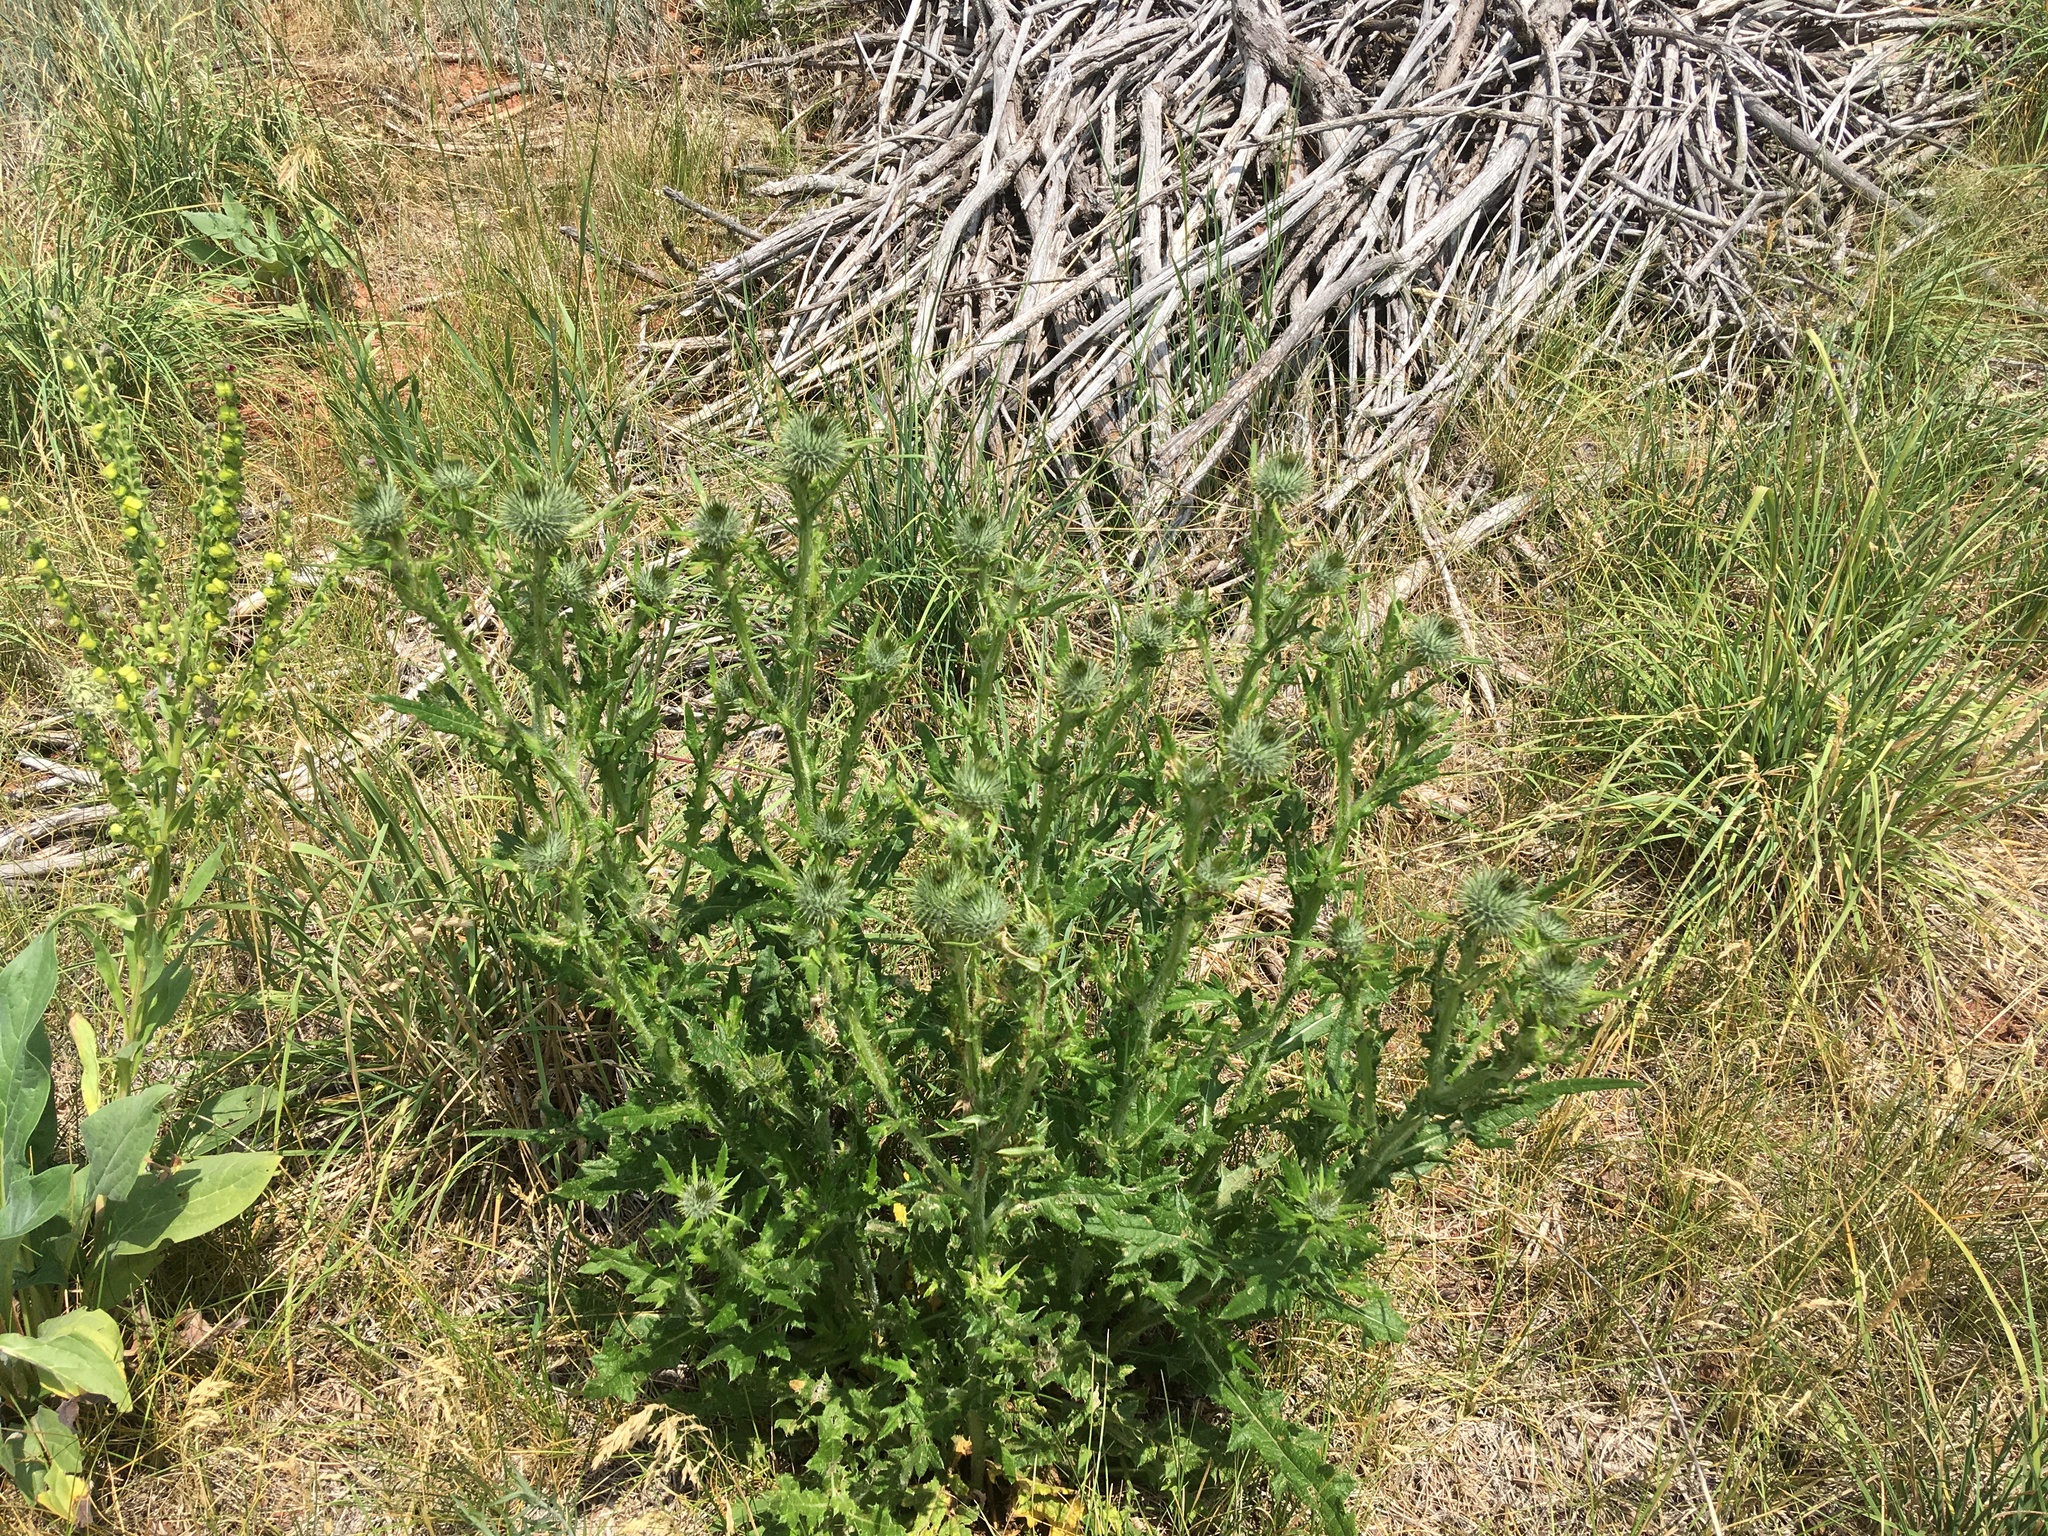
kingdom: Plantae
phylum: Tracheophyta
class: Magnoliopsida
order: Asterales
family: Asteraceae
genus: Cirsium
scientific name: Cirsium vulgare
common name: Bull thistle
